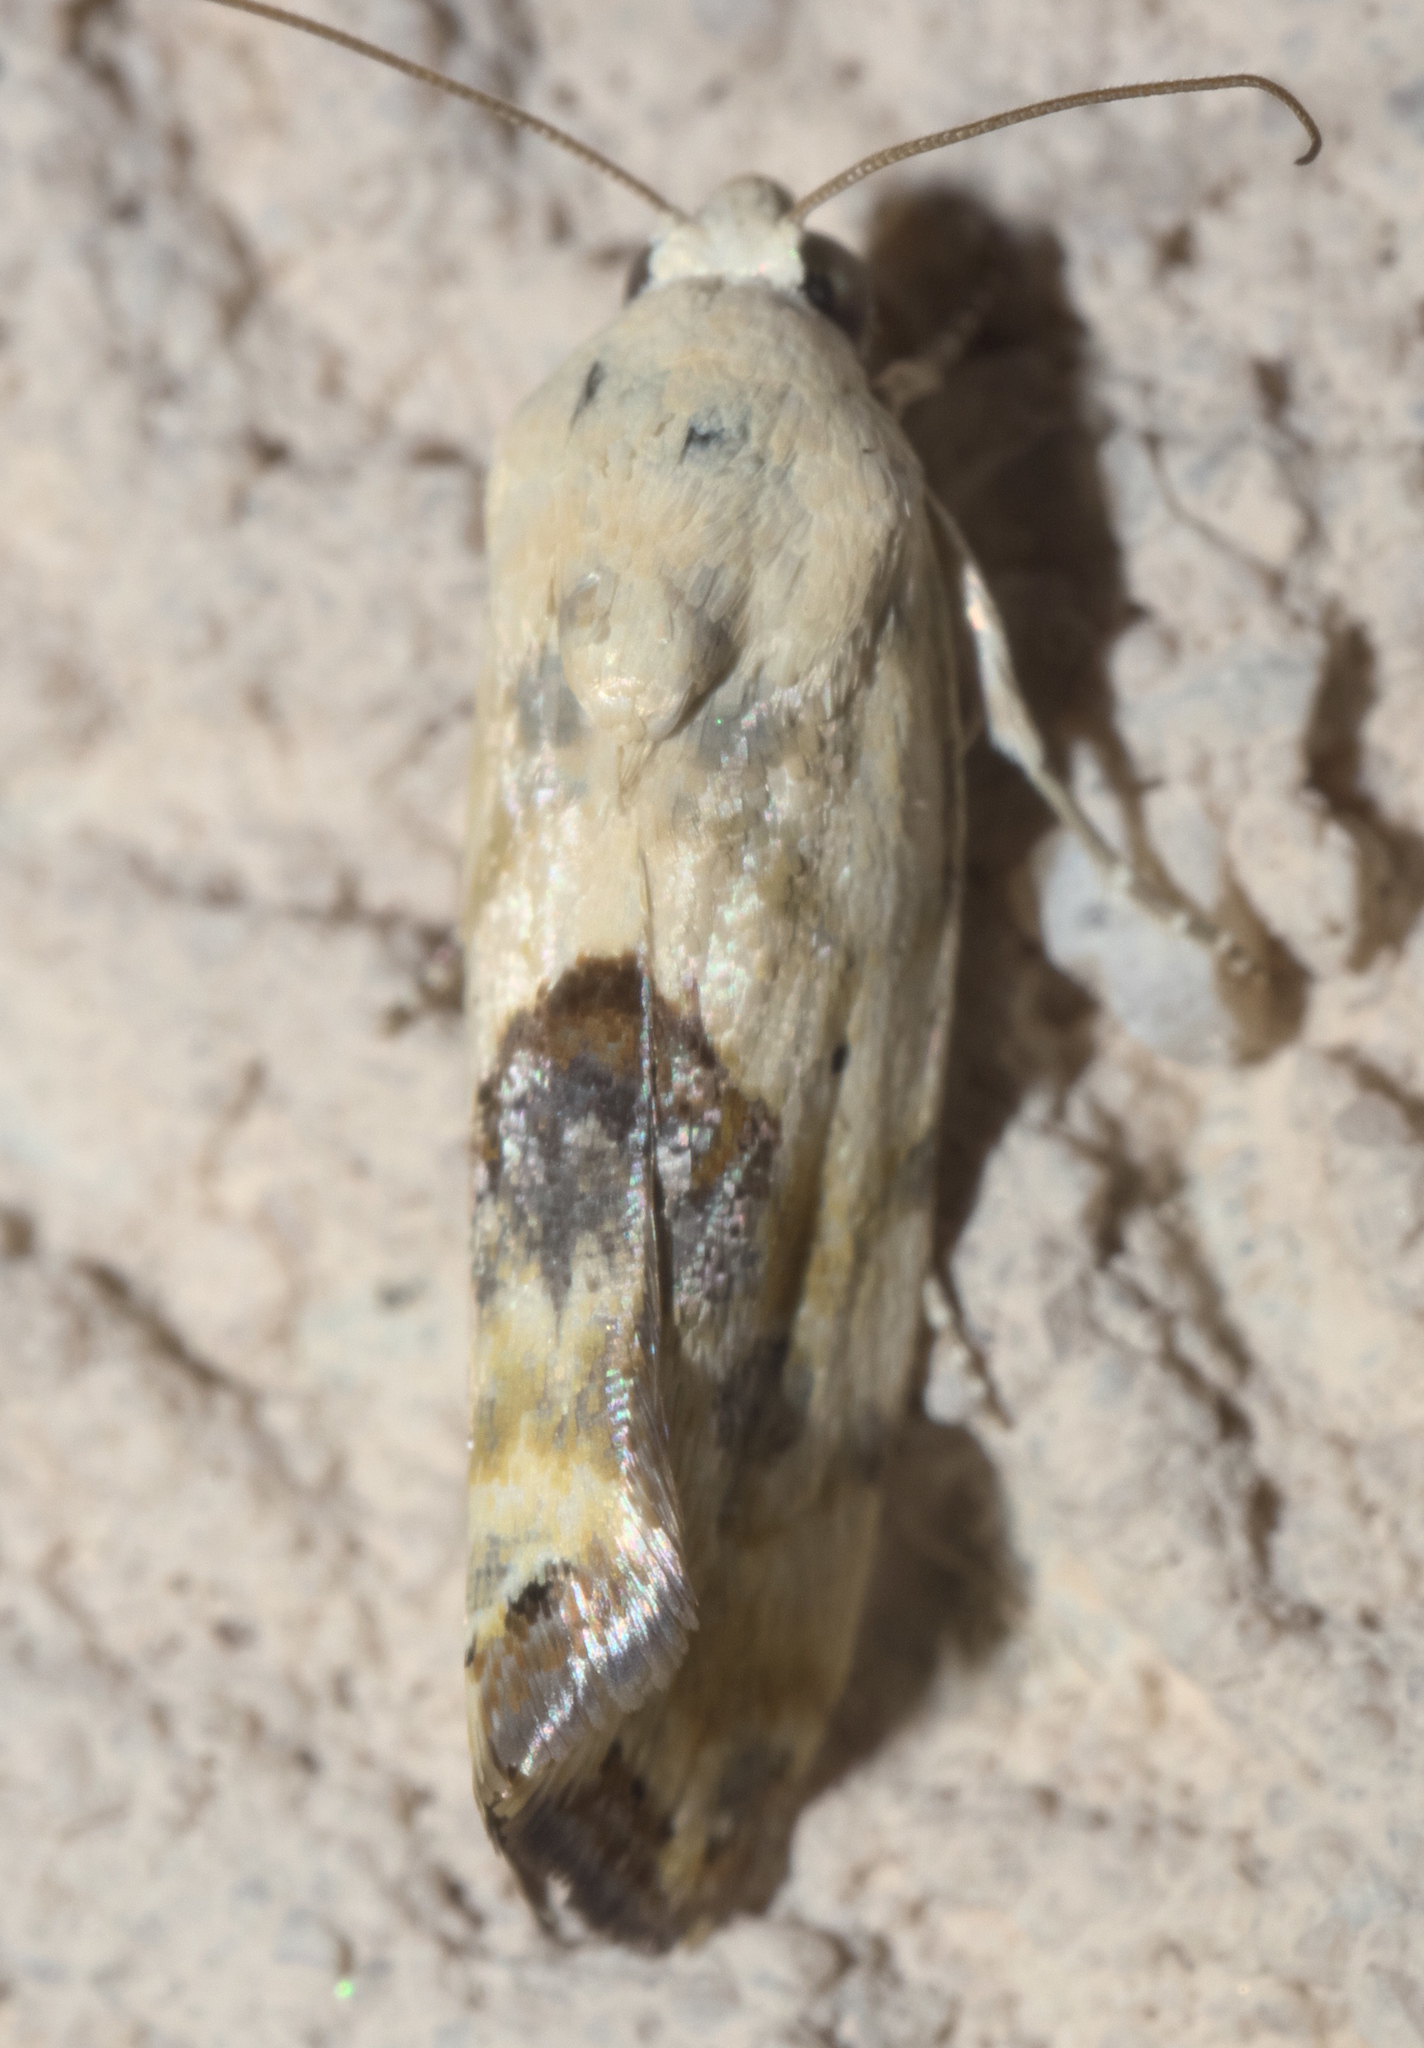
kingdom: Animalia
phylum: Arthropoda
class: Insecta
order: Lepidoptera
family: Noctuidae
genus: Acontia
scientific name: Acontia libedis
